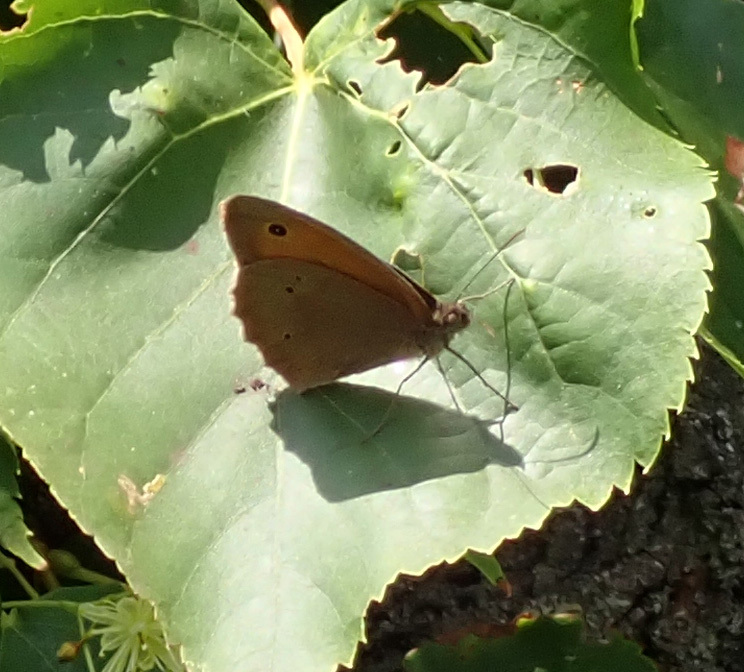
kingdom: Animalia
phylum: Arthropoda
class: Insecta
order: Lepidoptera
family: Nymphalidae
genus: Maniola
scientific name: Maniola jurtina
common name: Meadow brown
